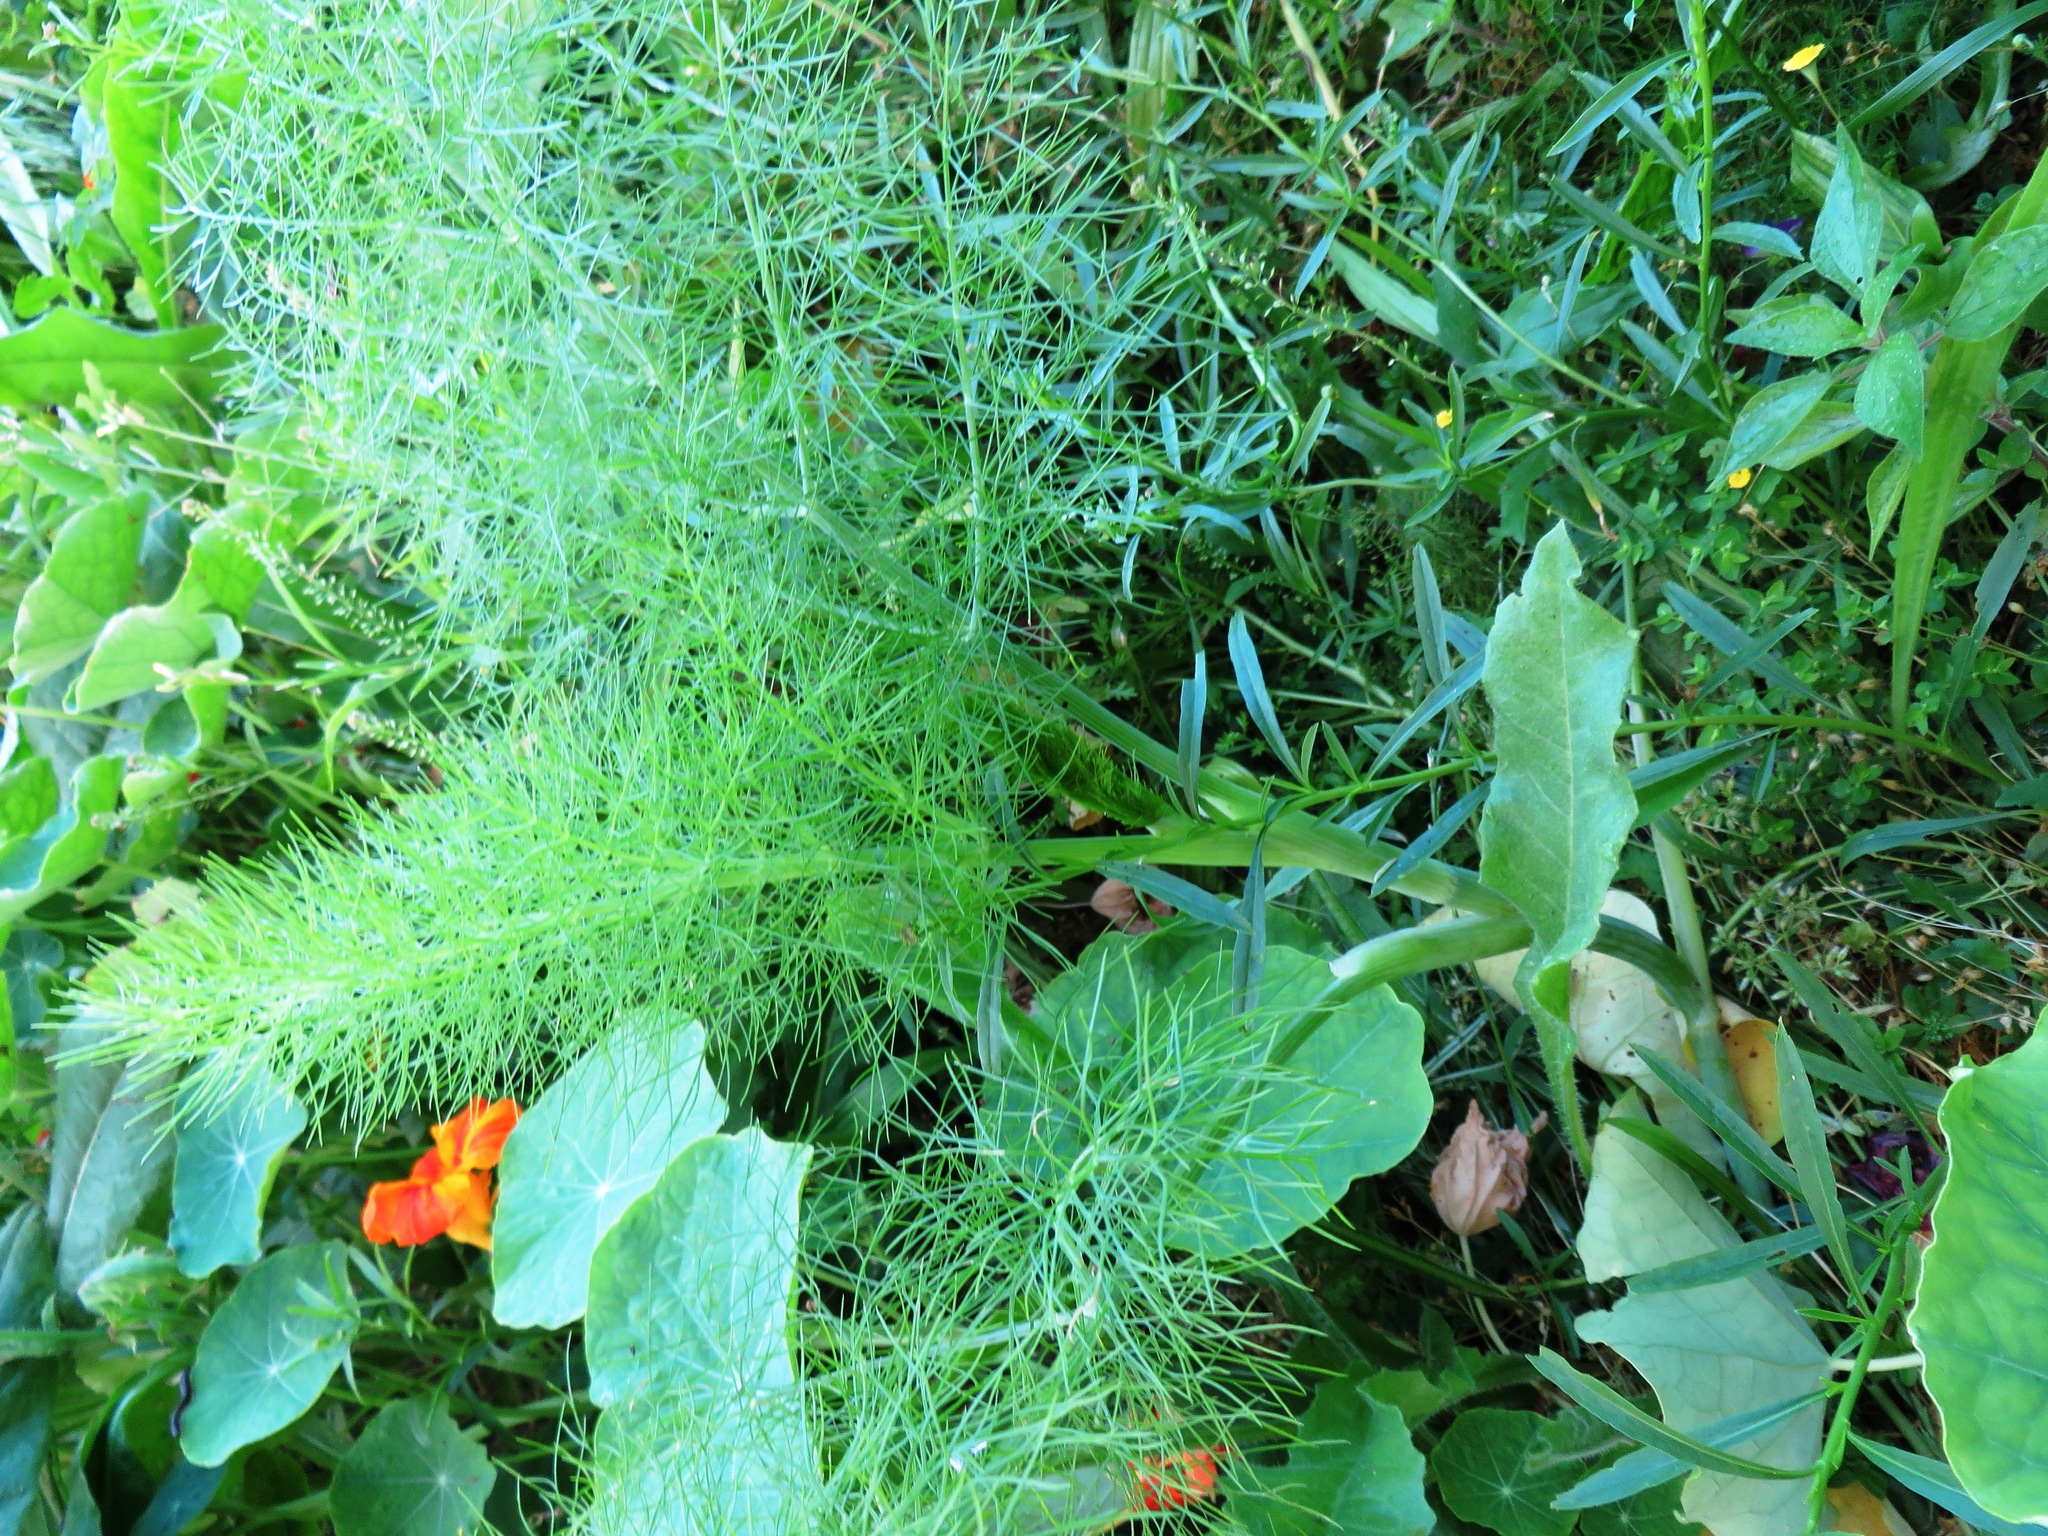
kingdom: Plantae
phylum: Tracheophyta
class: Magnoliopsida
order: Apiales
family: Apiaceae
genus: Foeniculum
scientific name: Foeniculum vulgare
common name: Fennel
